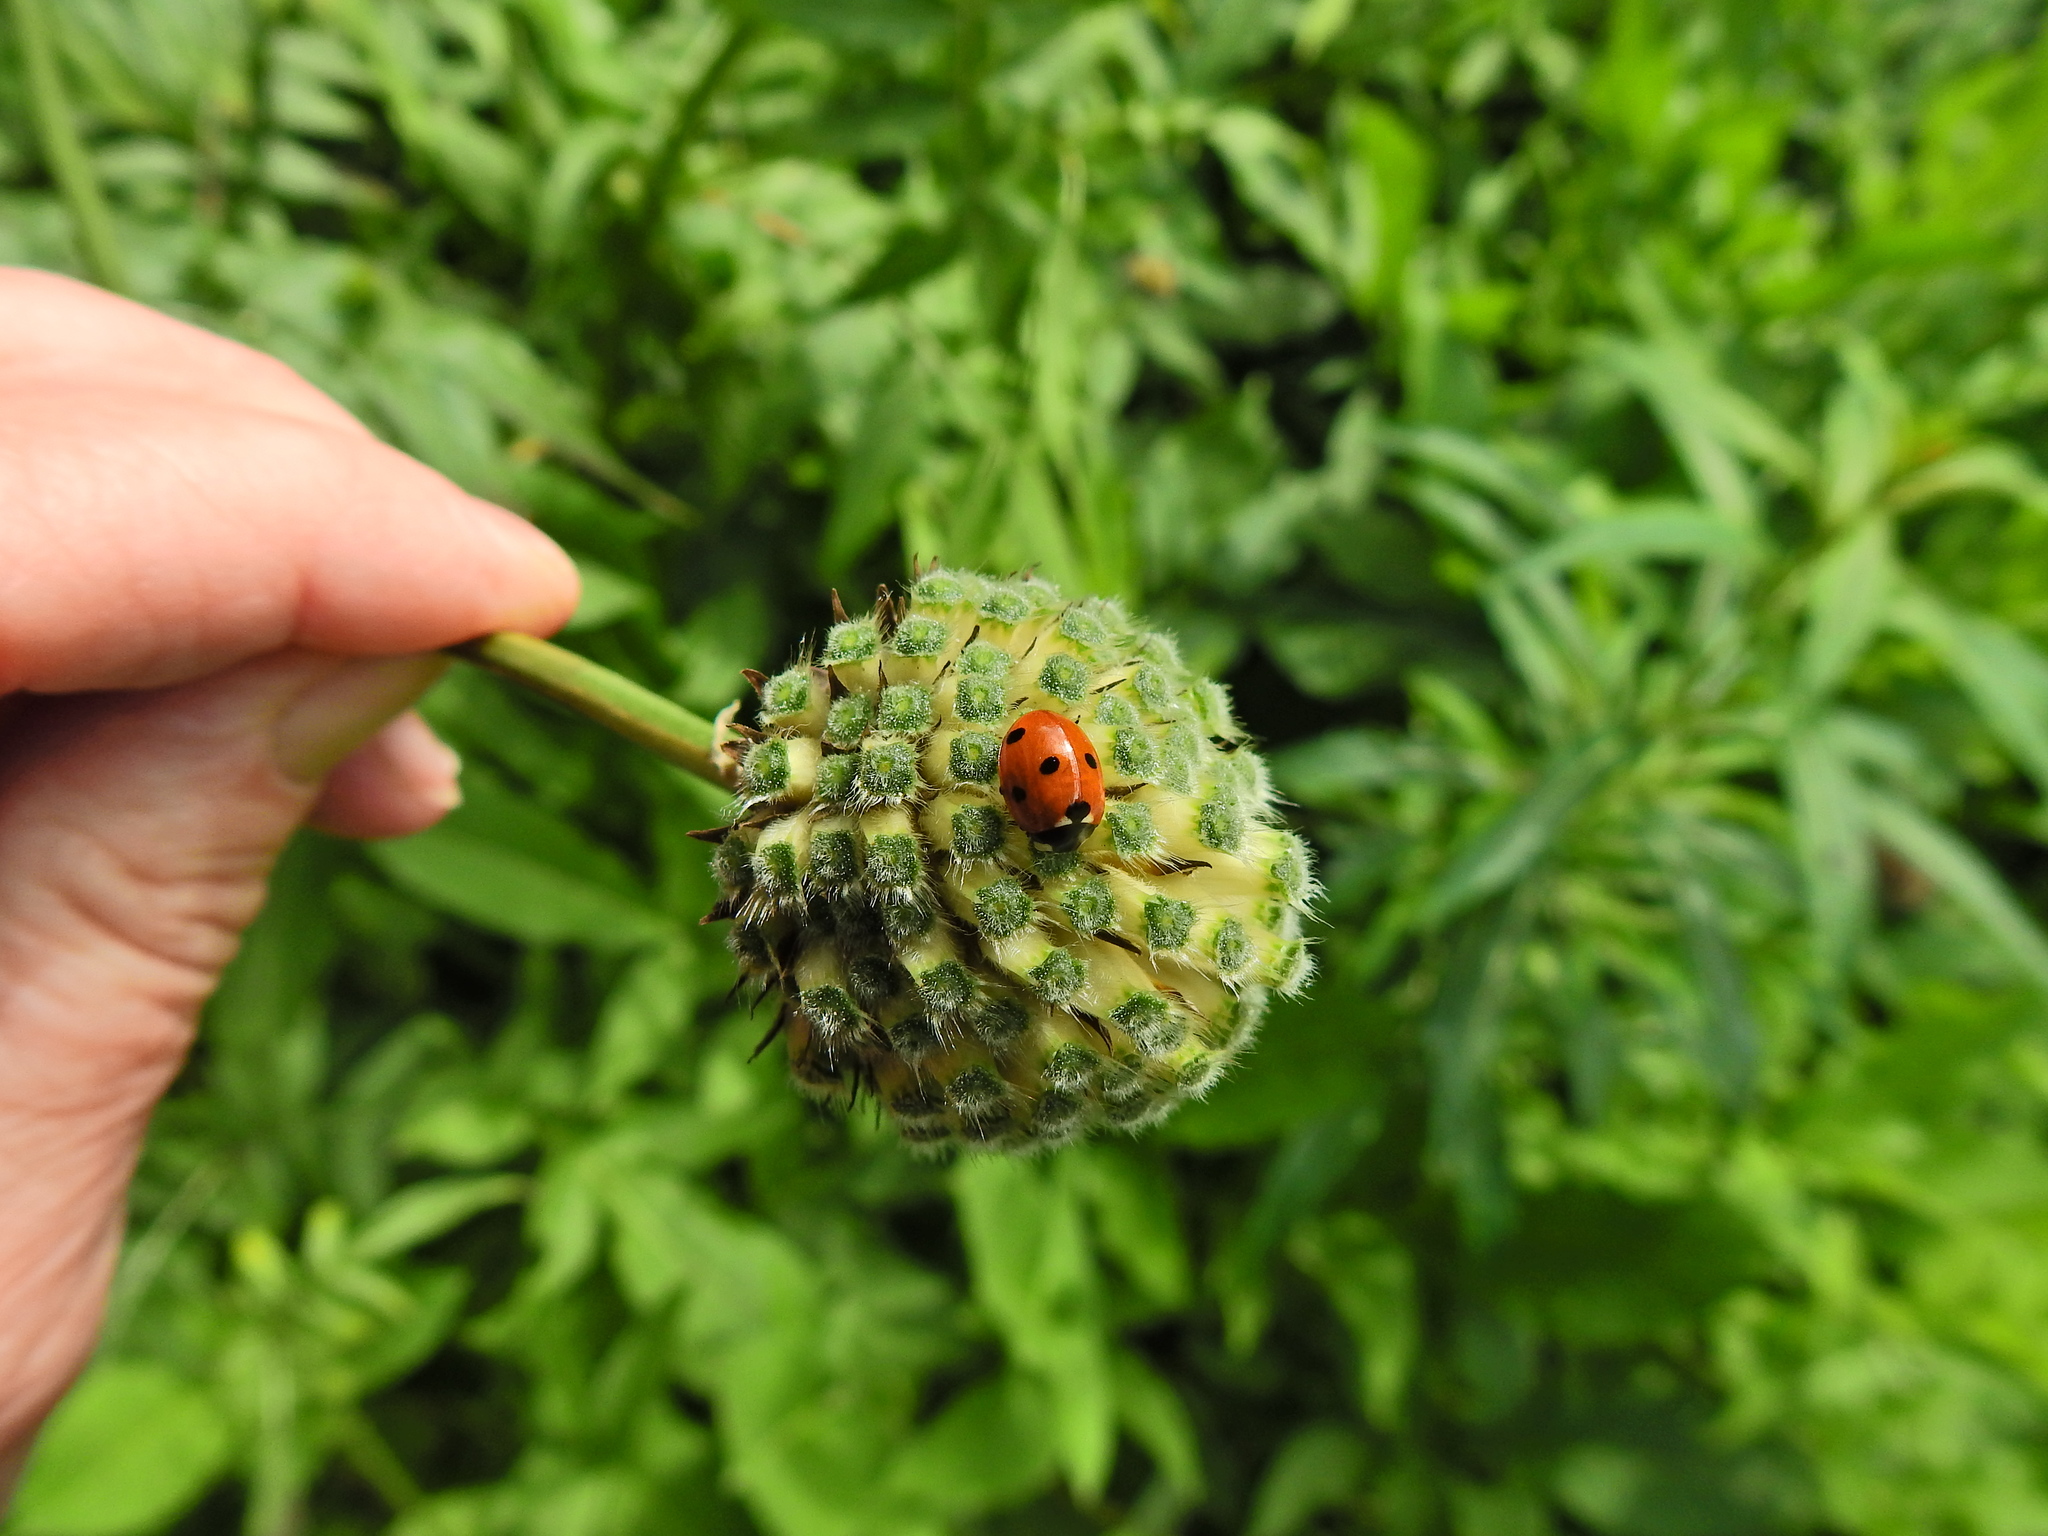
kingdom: Animalia
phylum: Arthropoda
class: Insecta
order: Coleoptera
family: Coccinellidae
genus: Coccinella
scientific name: Coccinella septempunctata
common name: Sevenspotted lady beetle
